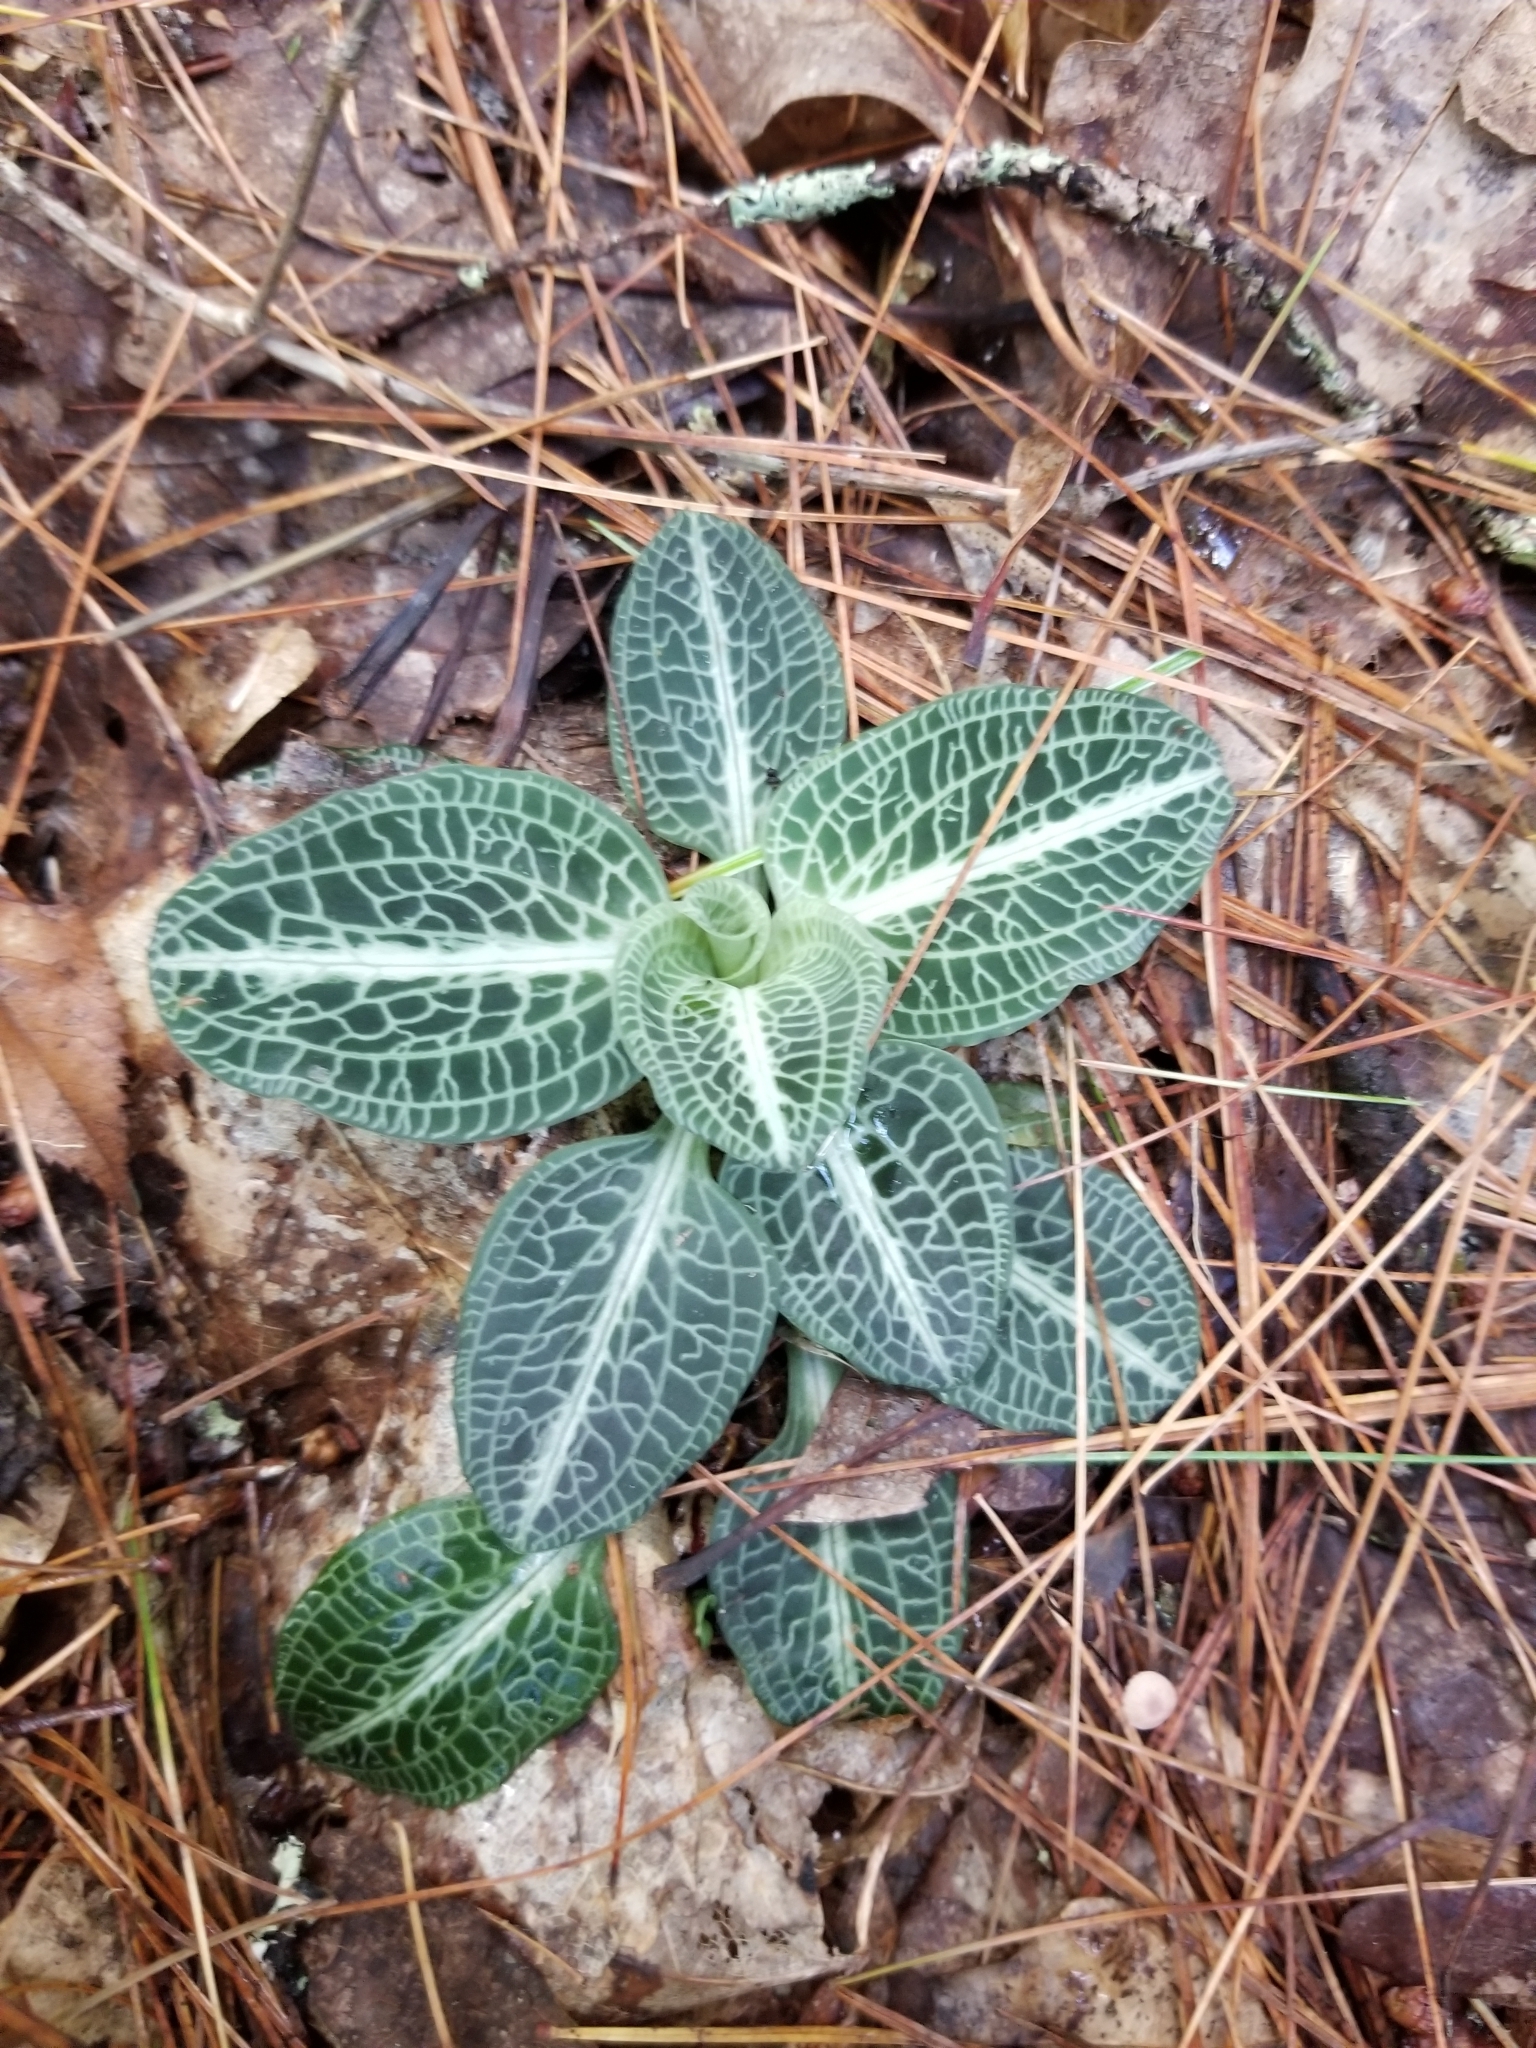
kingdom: Plantae
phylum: Tracheophyta
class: Liliopsida
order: Asparagales
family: Orchidaceae
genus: Goodyera
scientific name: Goodyera pubescens
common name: Downy rattlesnake-plantain
